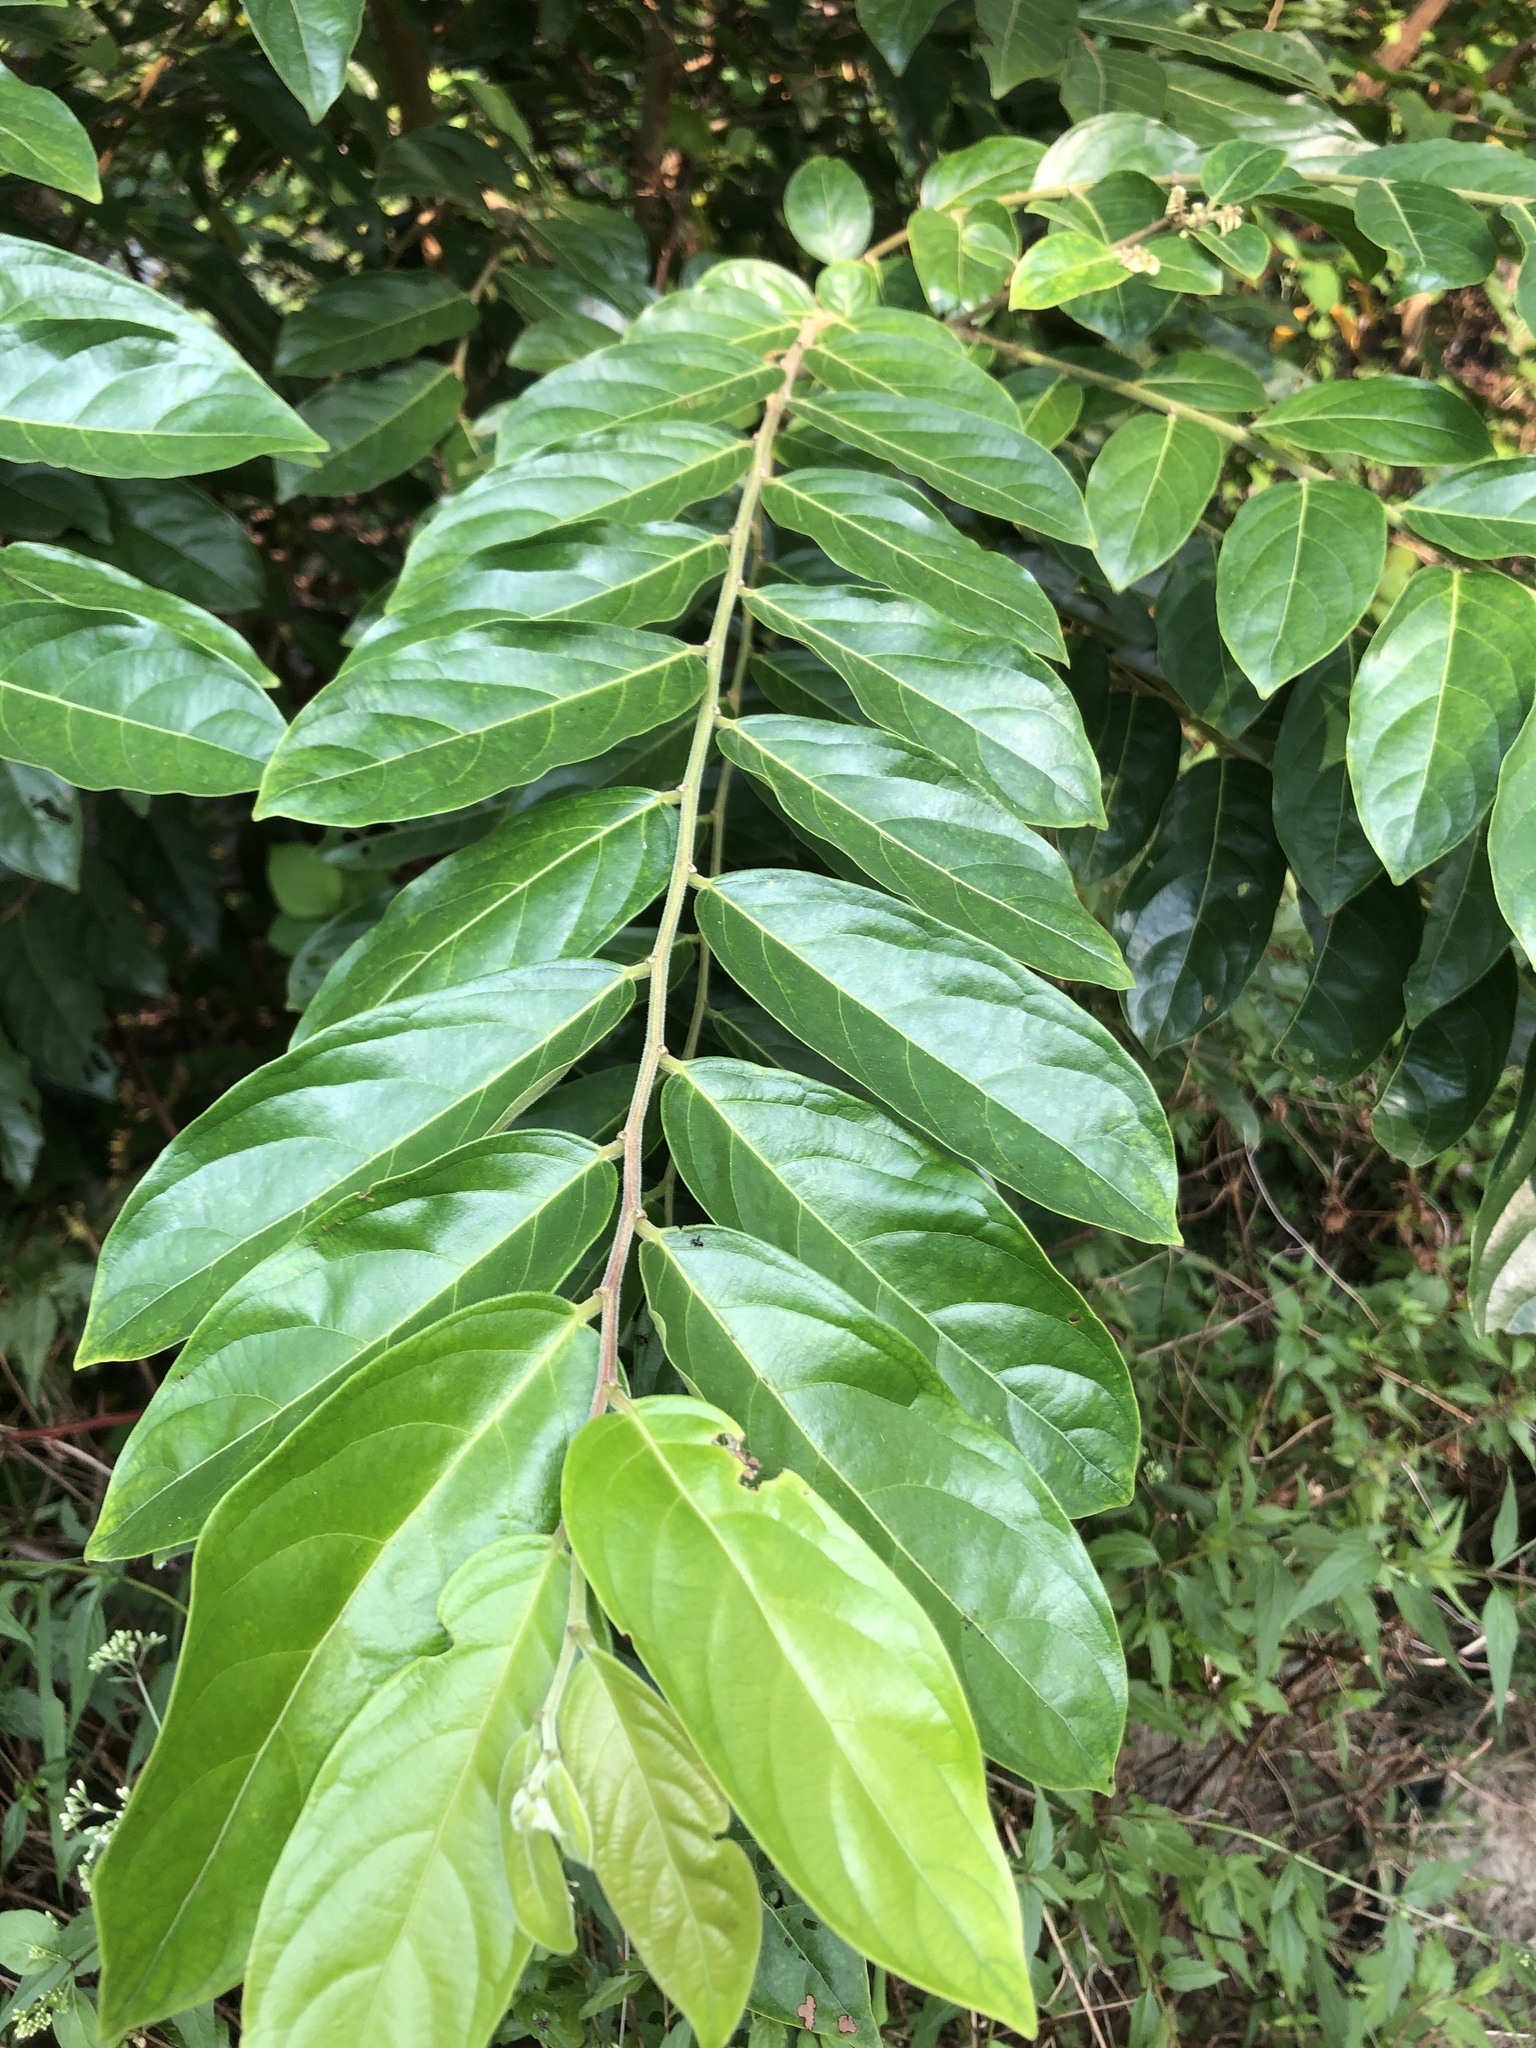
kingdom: Plantae
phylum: Tracheophyta
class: Magnoliopsida
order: Malpighiales
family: Phyllanthaceae
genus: Glochidion
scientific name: Glochidion philippicum
